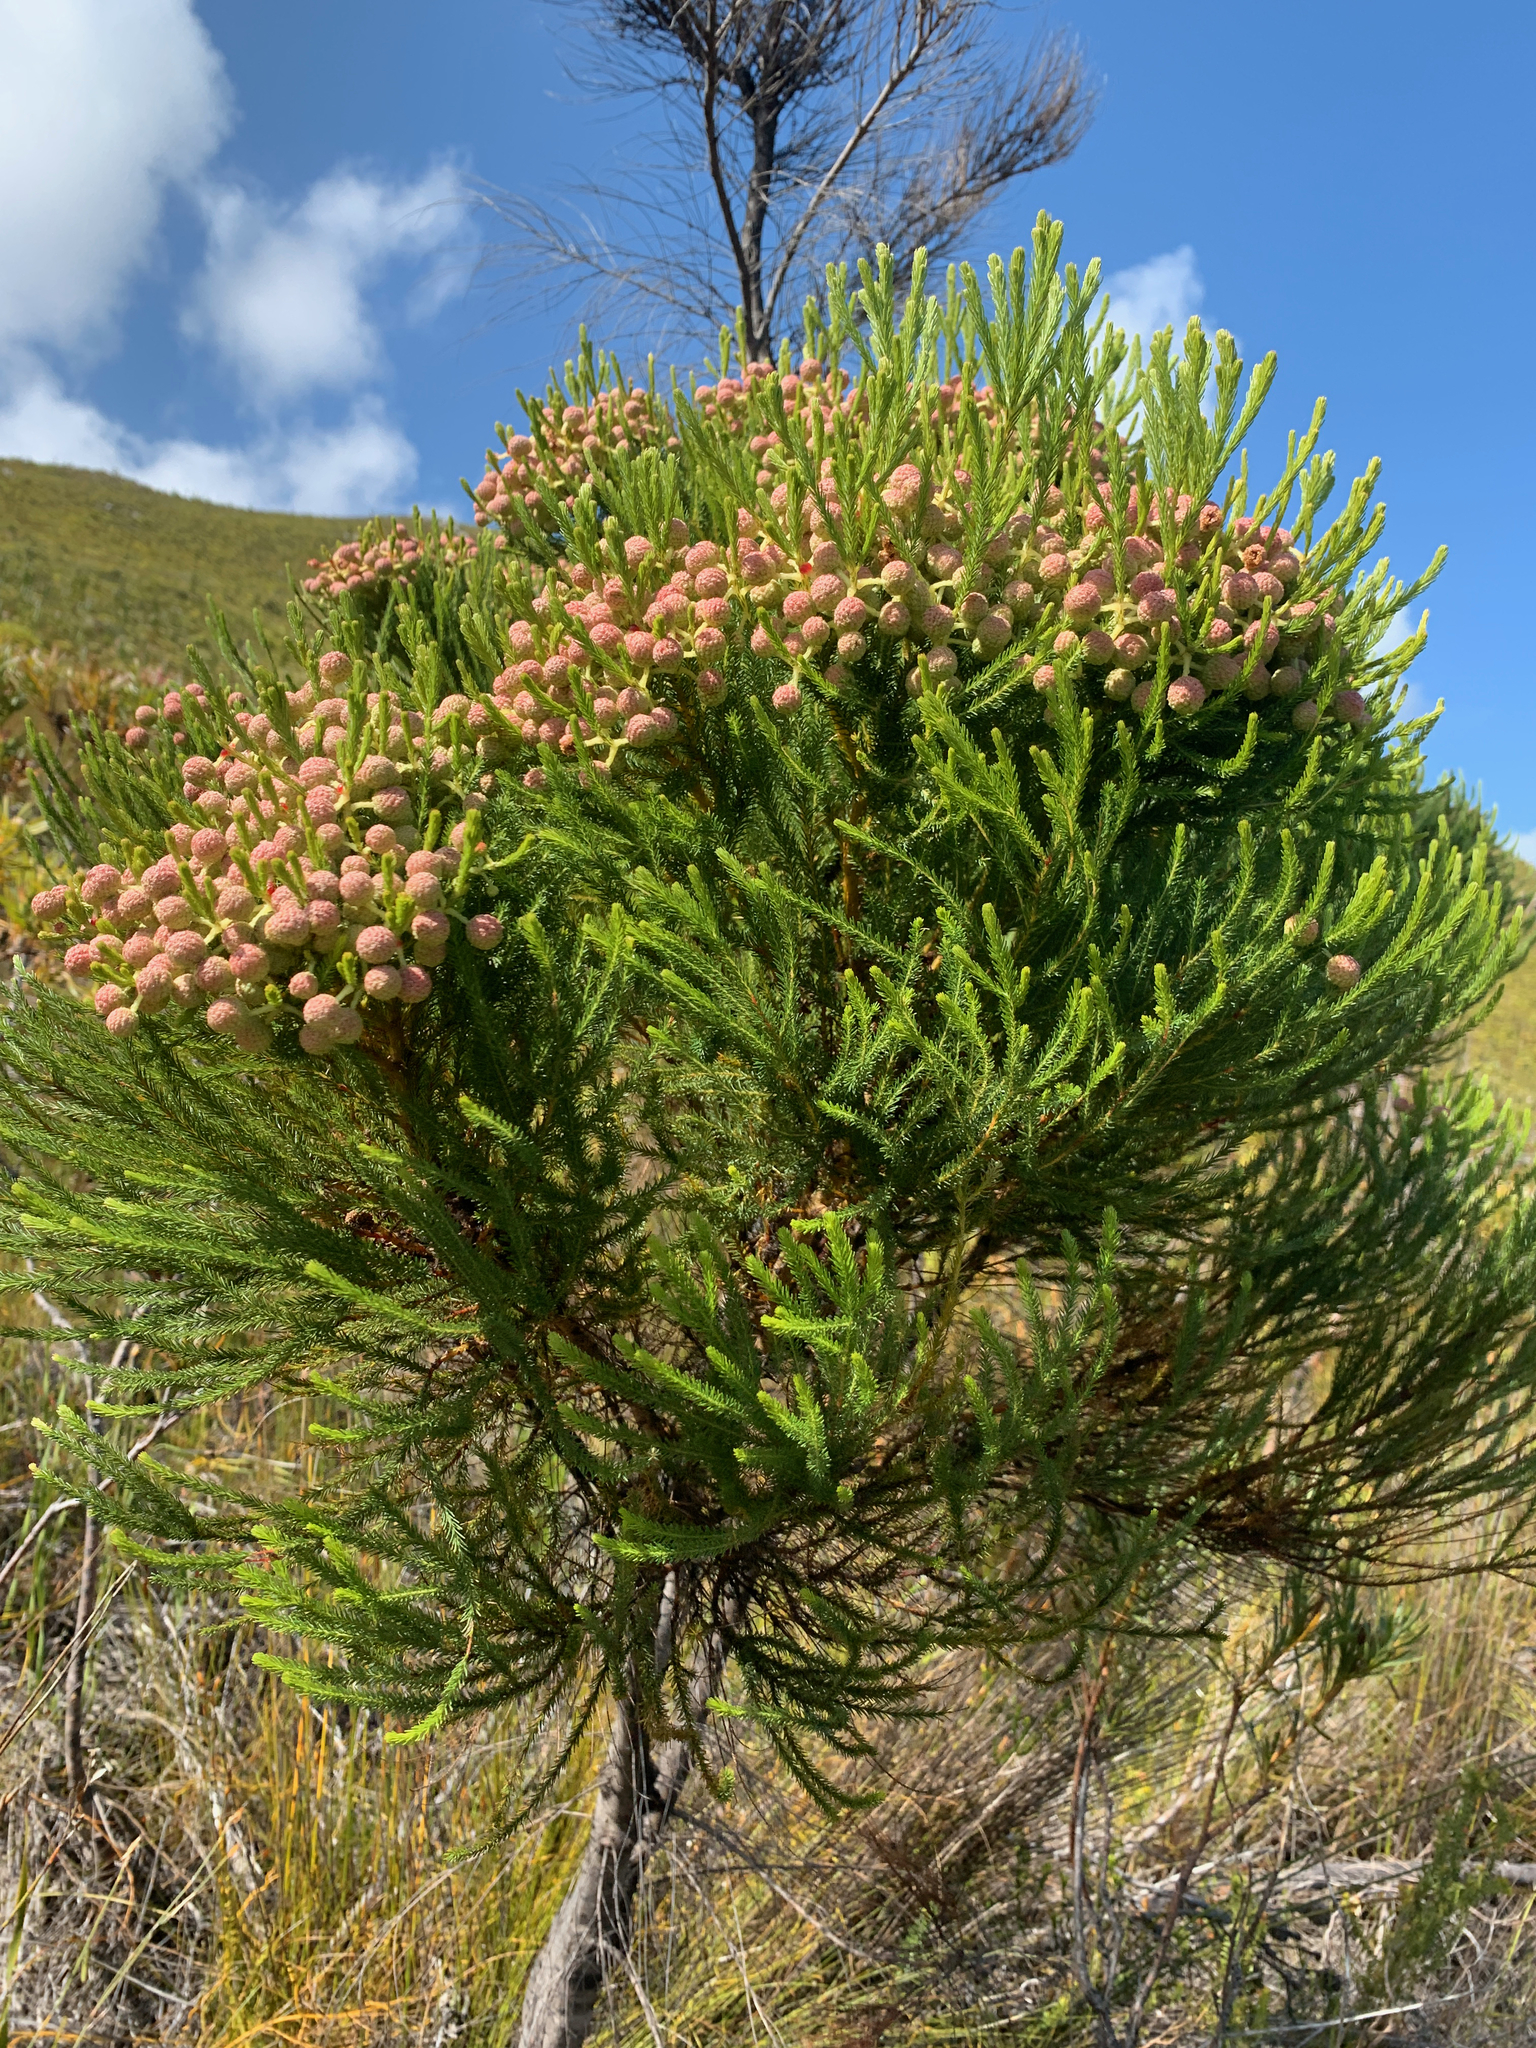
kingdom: Plantae
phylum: Tracheophyta
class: Magnoliopsida
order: Bruniales
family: Bruniaceae
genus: Berzelia
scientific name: Berzelia alopecurioides
